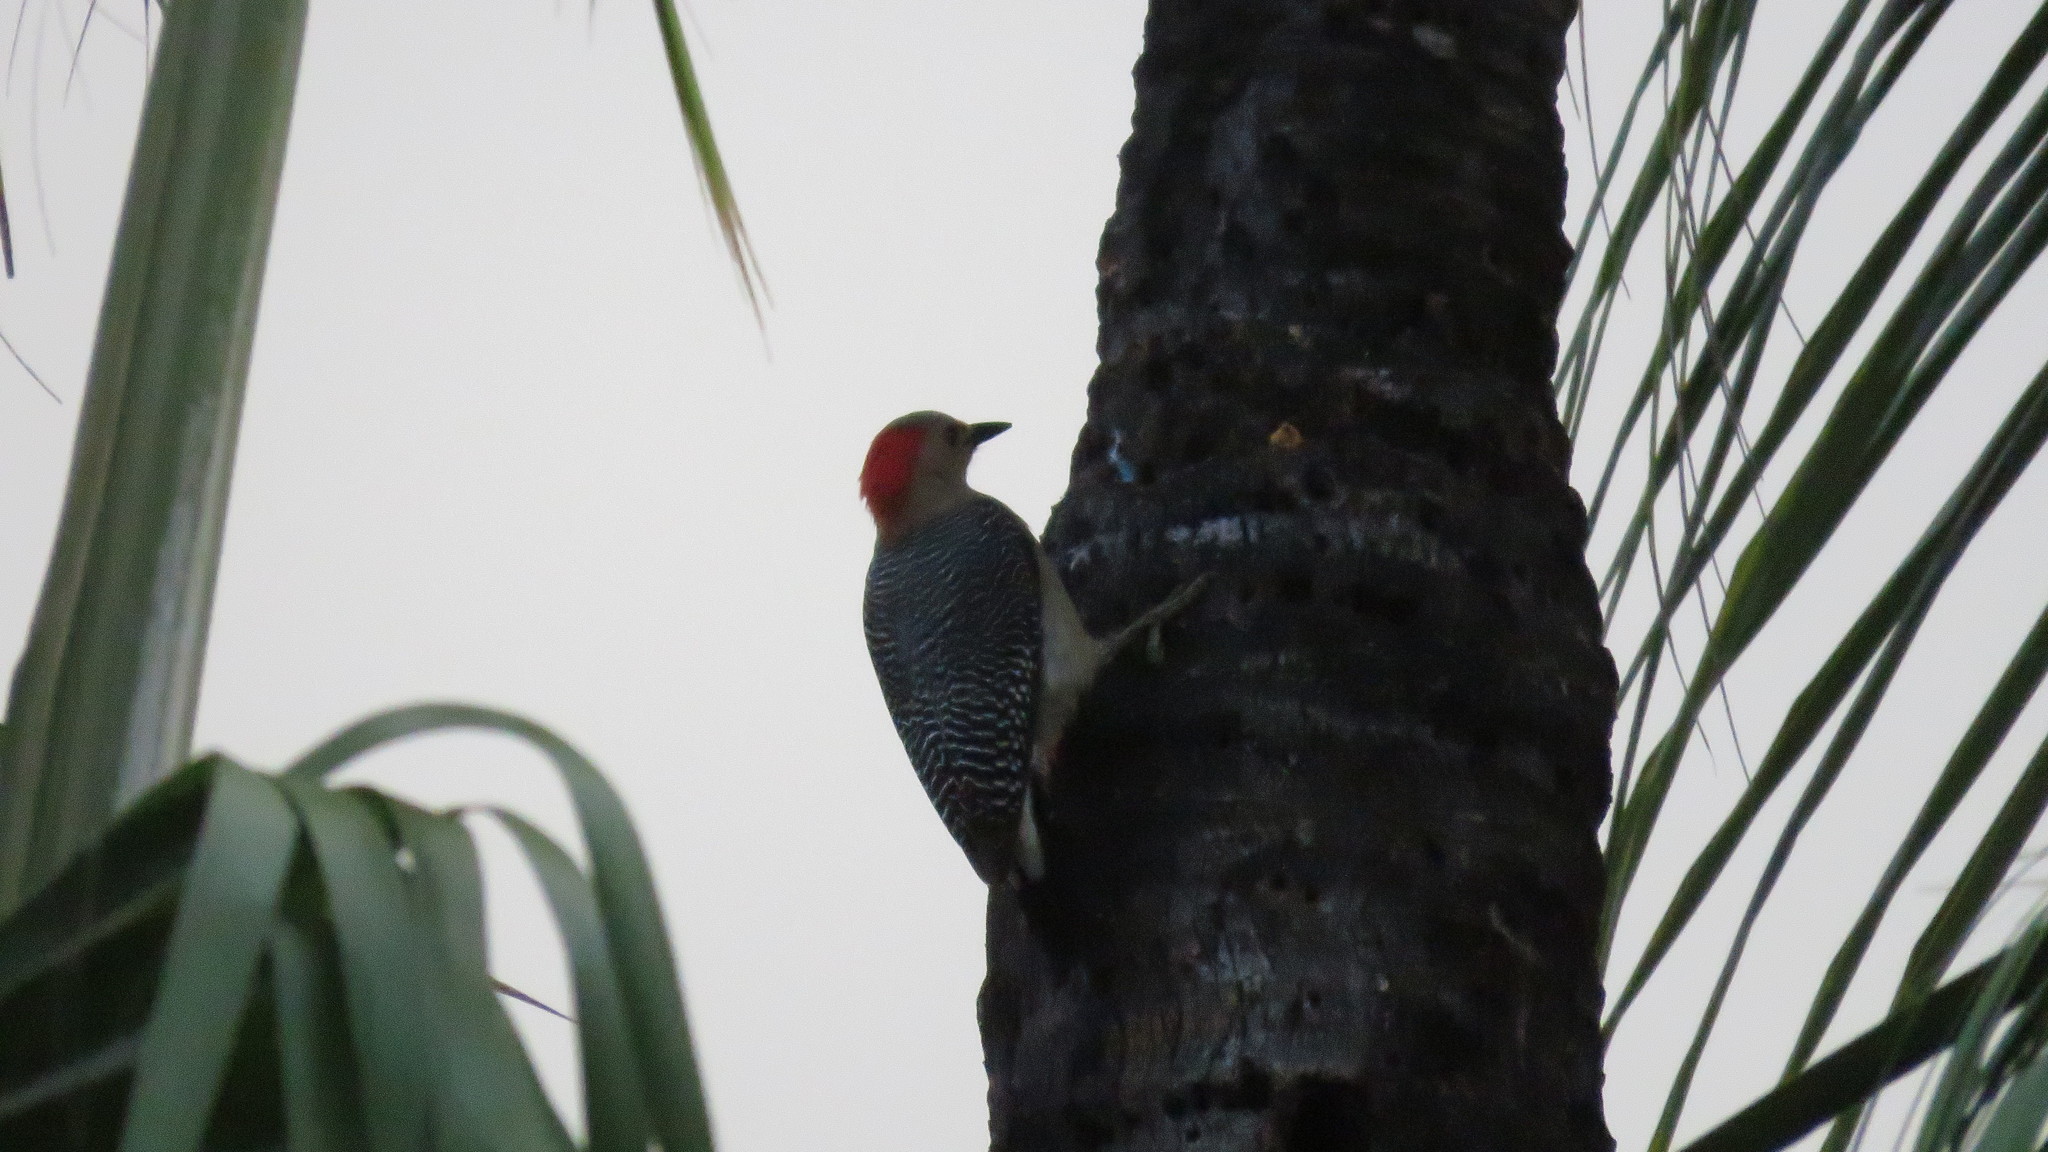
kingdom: Animalia
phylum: Chordata
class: Aves
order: Piciformes
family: Picidae
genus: Melanerpes
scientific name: Melanerpes aurifrons
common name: Golden-fronted woodpecker
